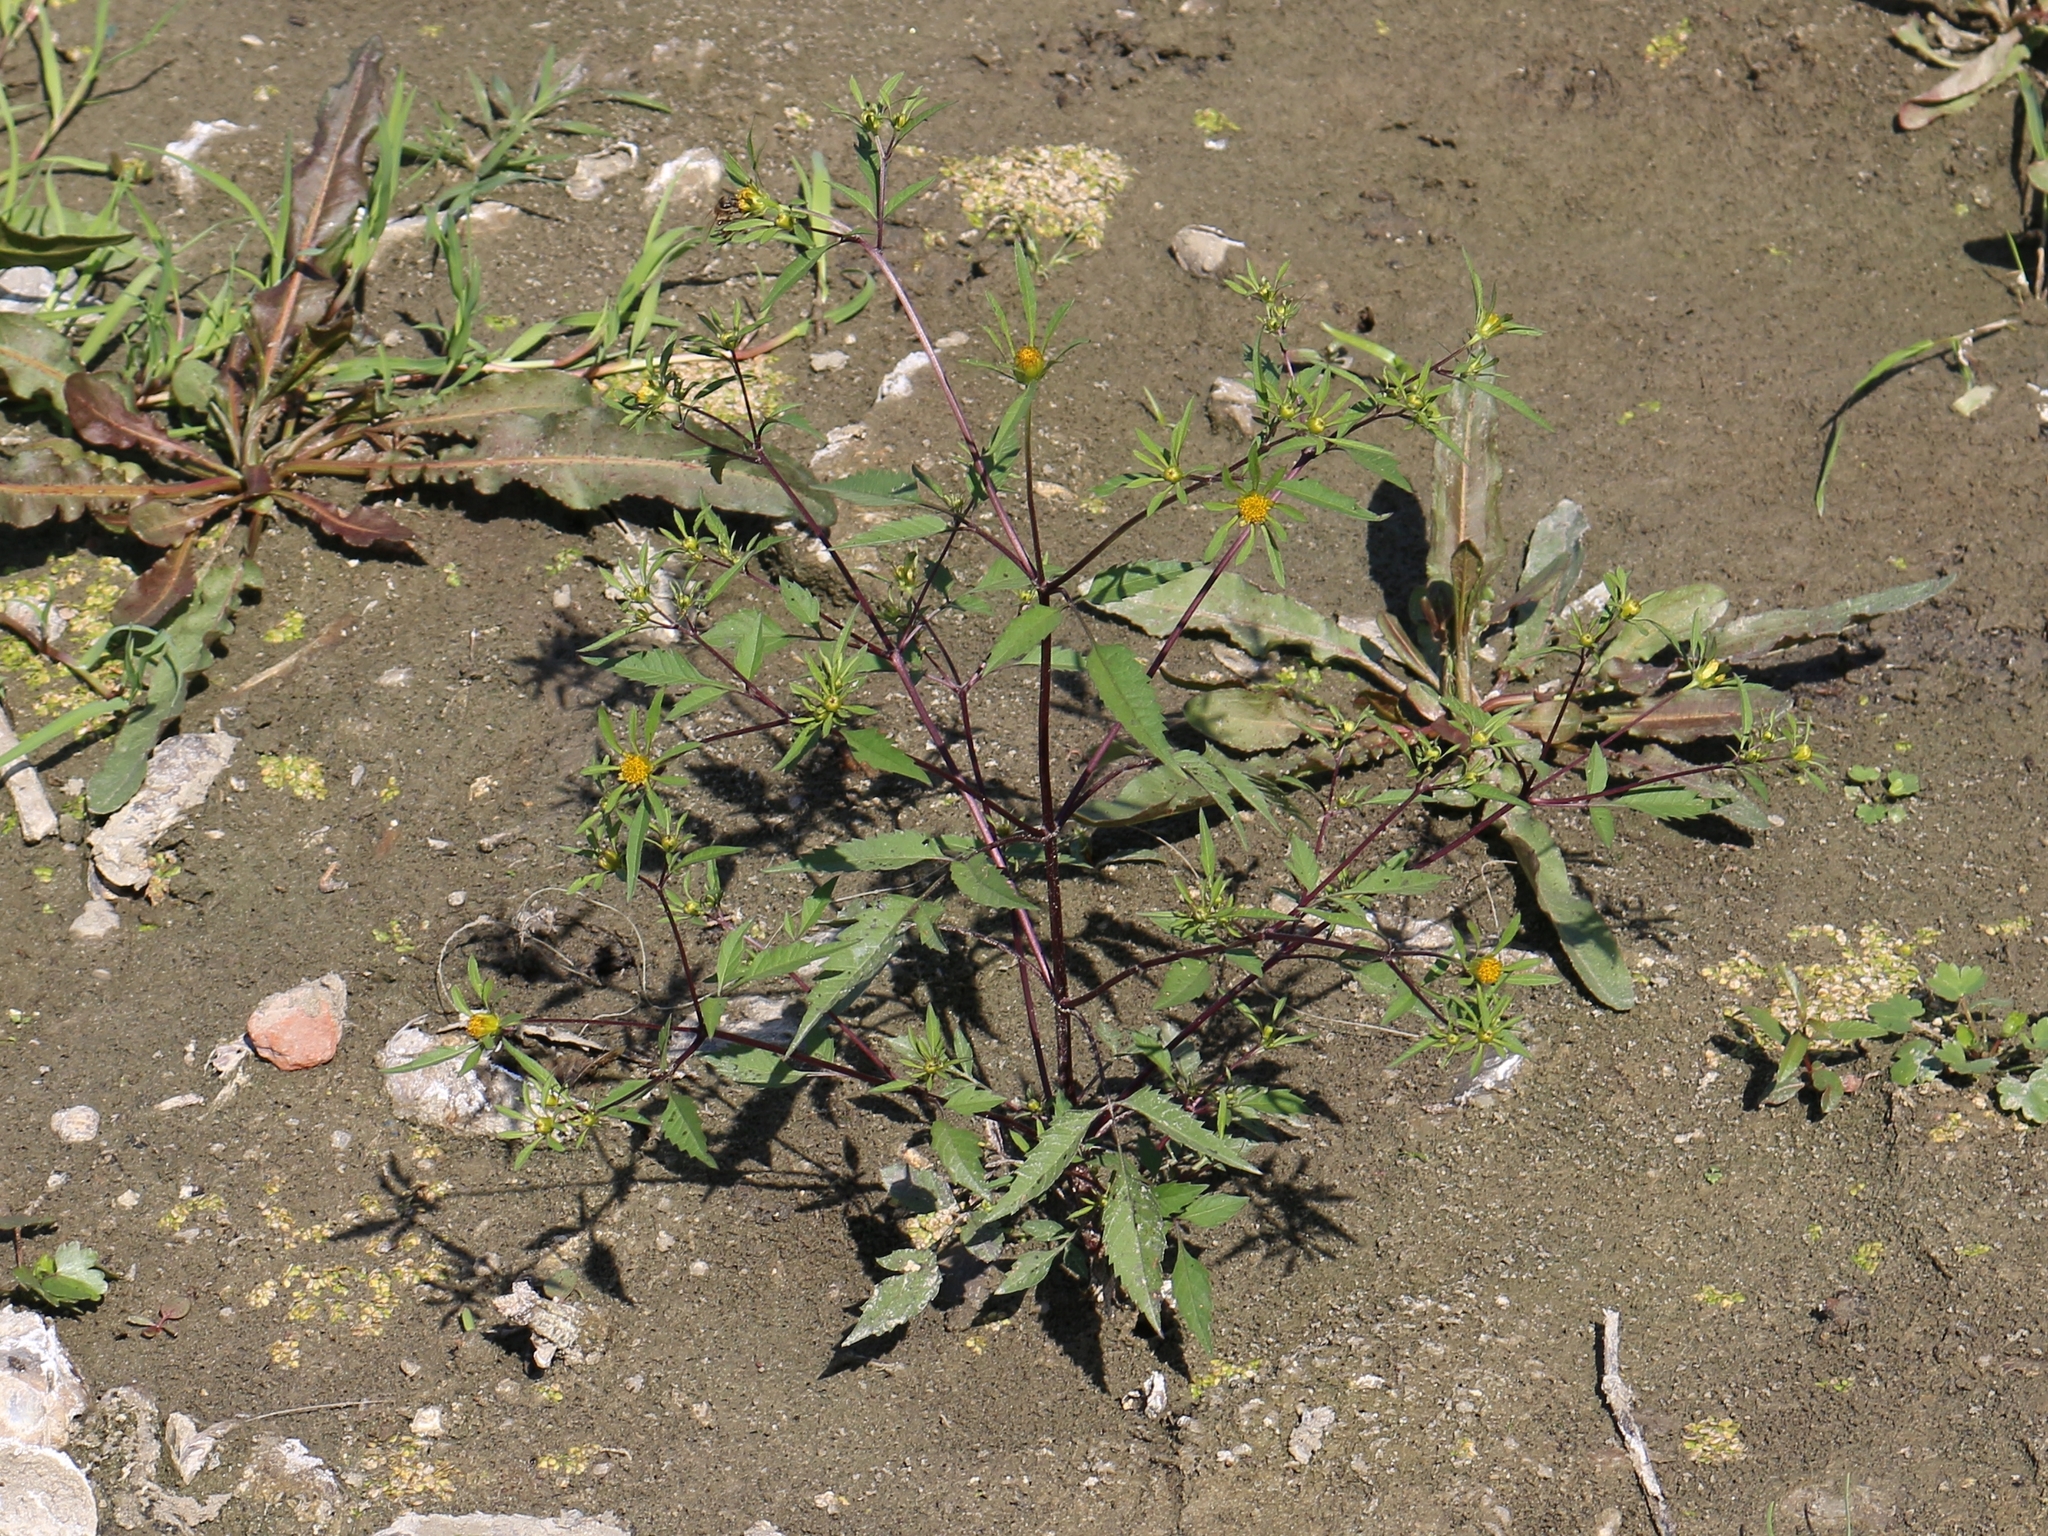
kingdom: Plantae
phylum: Tracheophyta
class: Magnoliopsida
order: Asterales
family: Asteraceae
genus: Bidens
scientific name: Bidens frondosa
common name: Beggarticks
